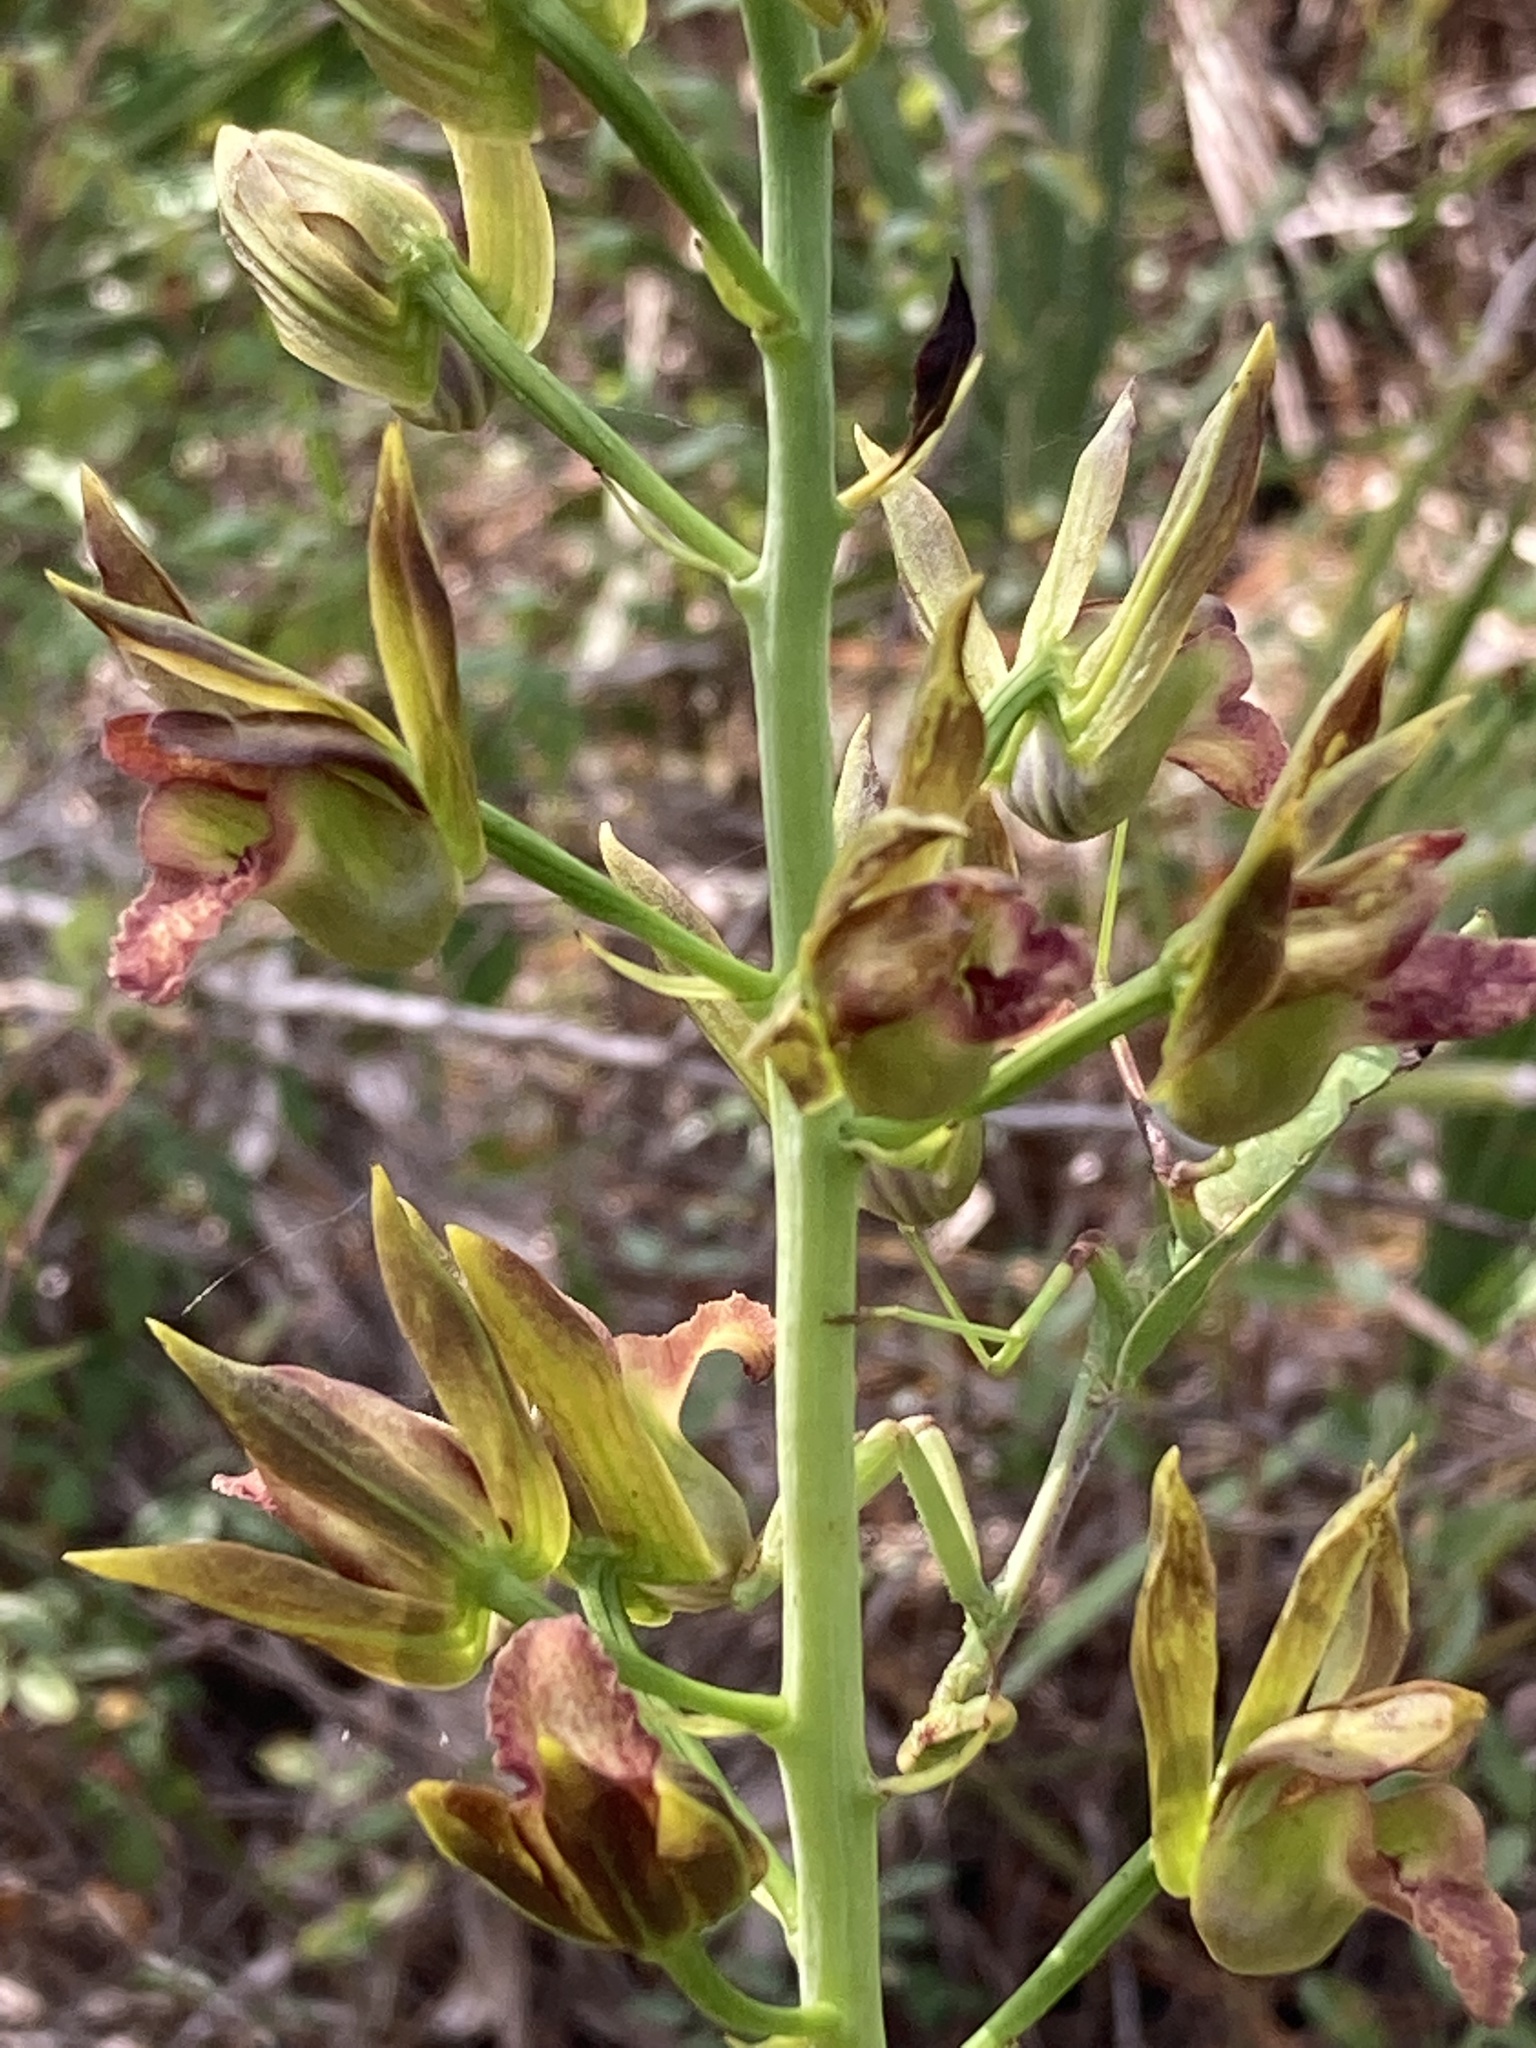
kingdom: Plantae
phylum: Tracheophyta
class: Liliopsida
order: Asparagales
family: Orchidaceae
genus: Eulophia
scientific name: Eulophia alta
